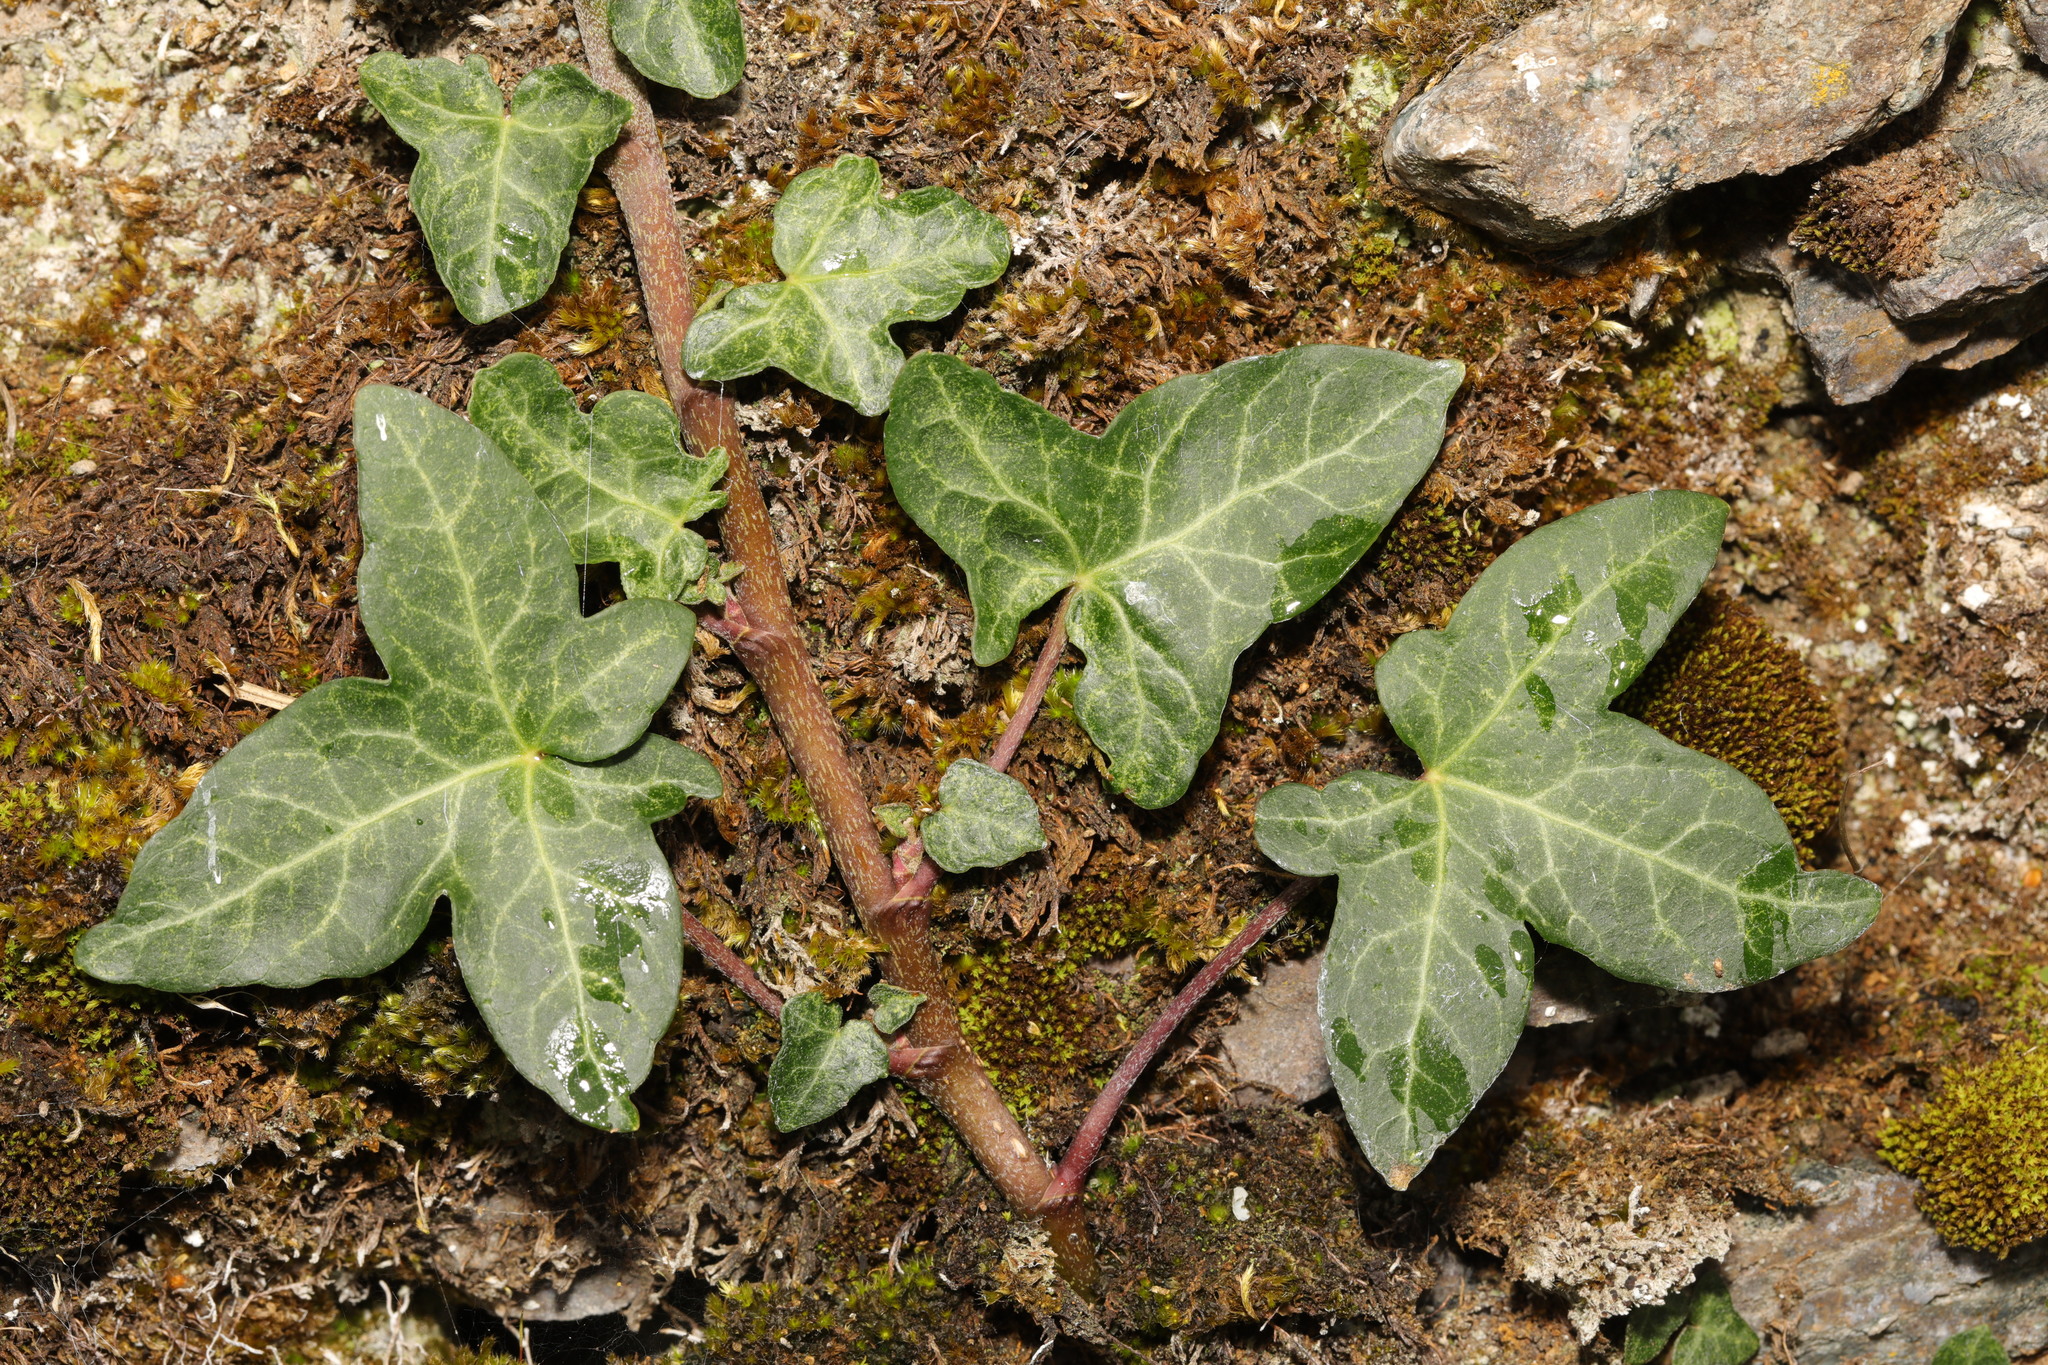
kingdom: Plantae
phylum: Tracheophyta
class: Magnoliopsida
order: Apiales
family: Araliaceae
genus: Hedera
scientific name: Hedera helix
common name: Ivy
